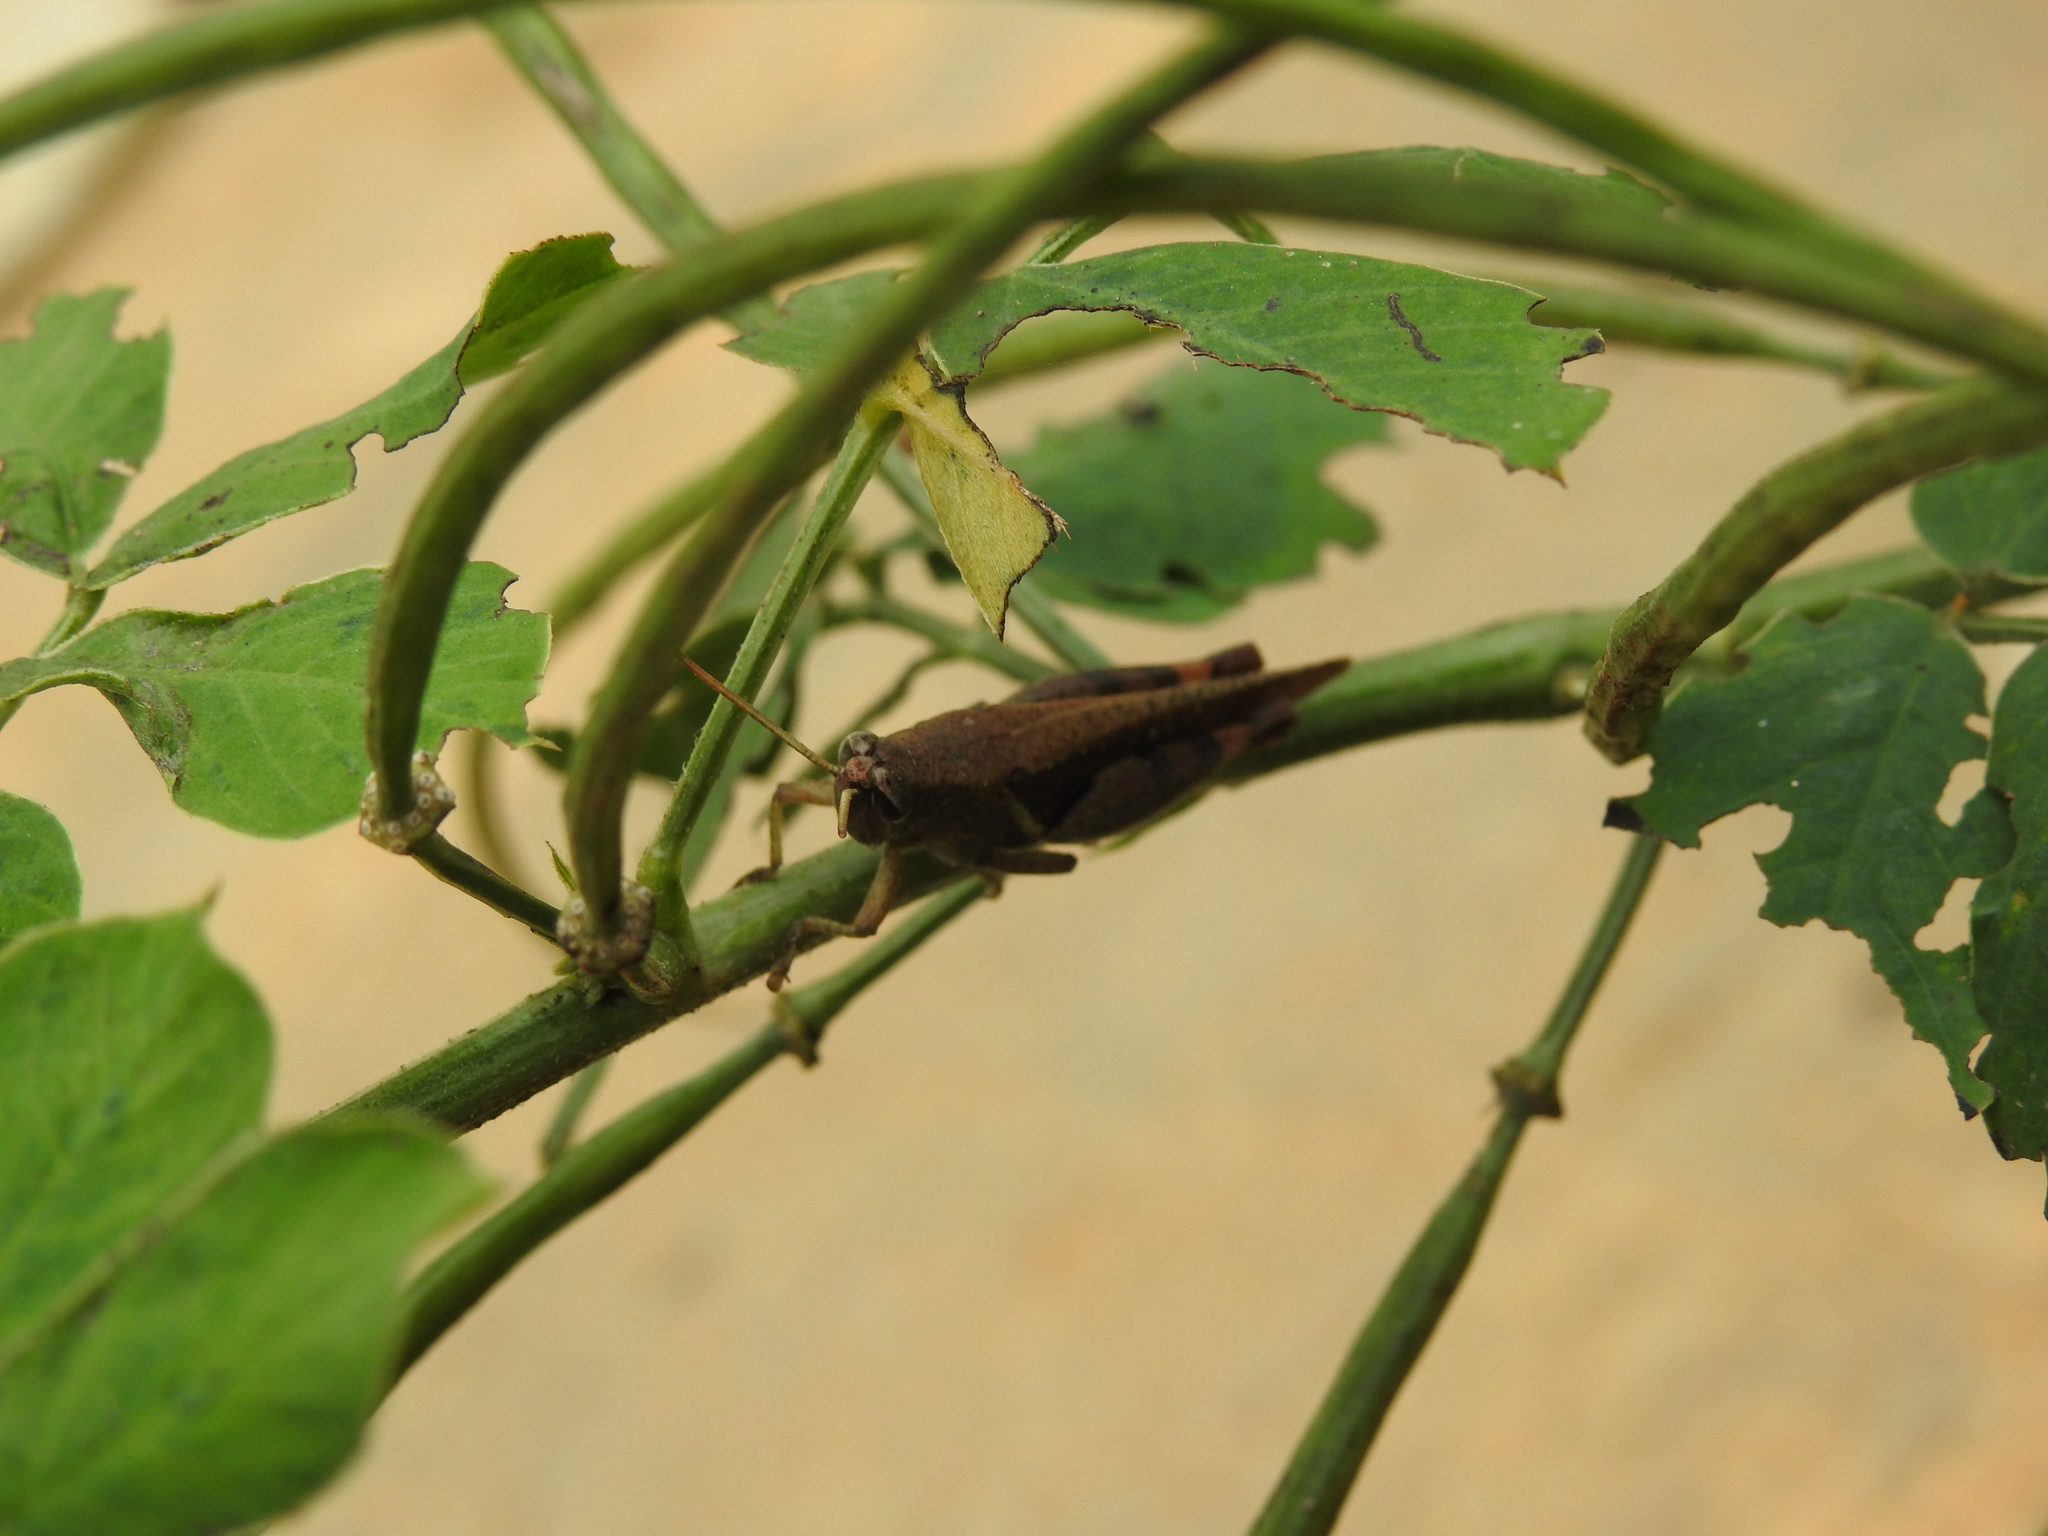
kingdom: Animalia
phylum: Arthropoda
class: Insecta
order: Orthoptera
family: Acrididae
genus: Diabolocatantops
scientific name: Diabolocatantops innotabilis
